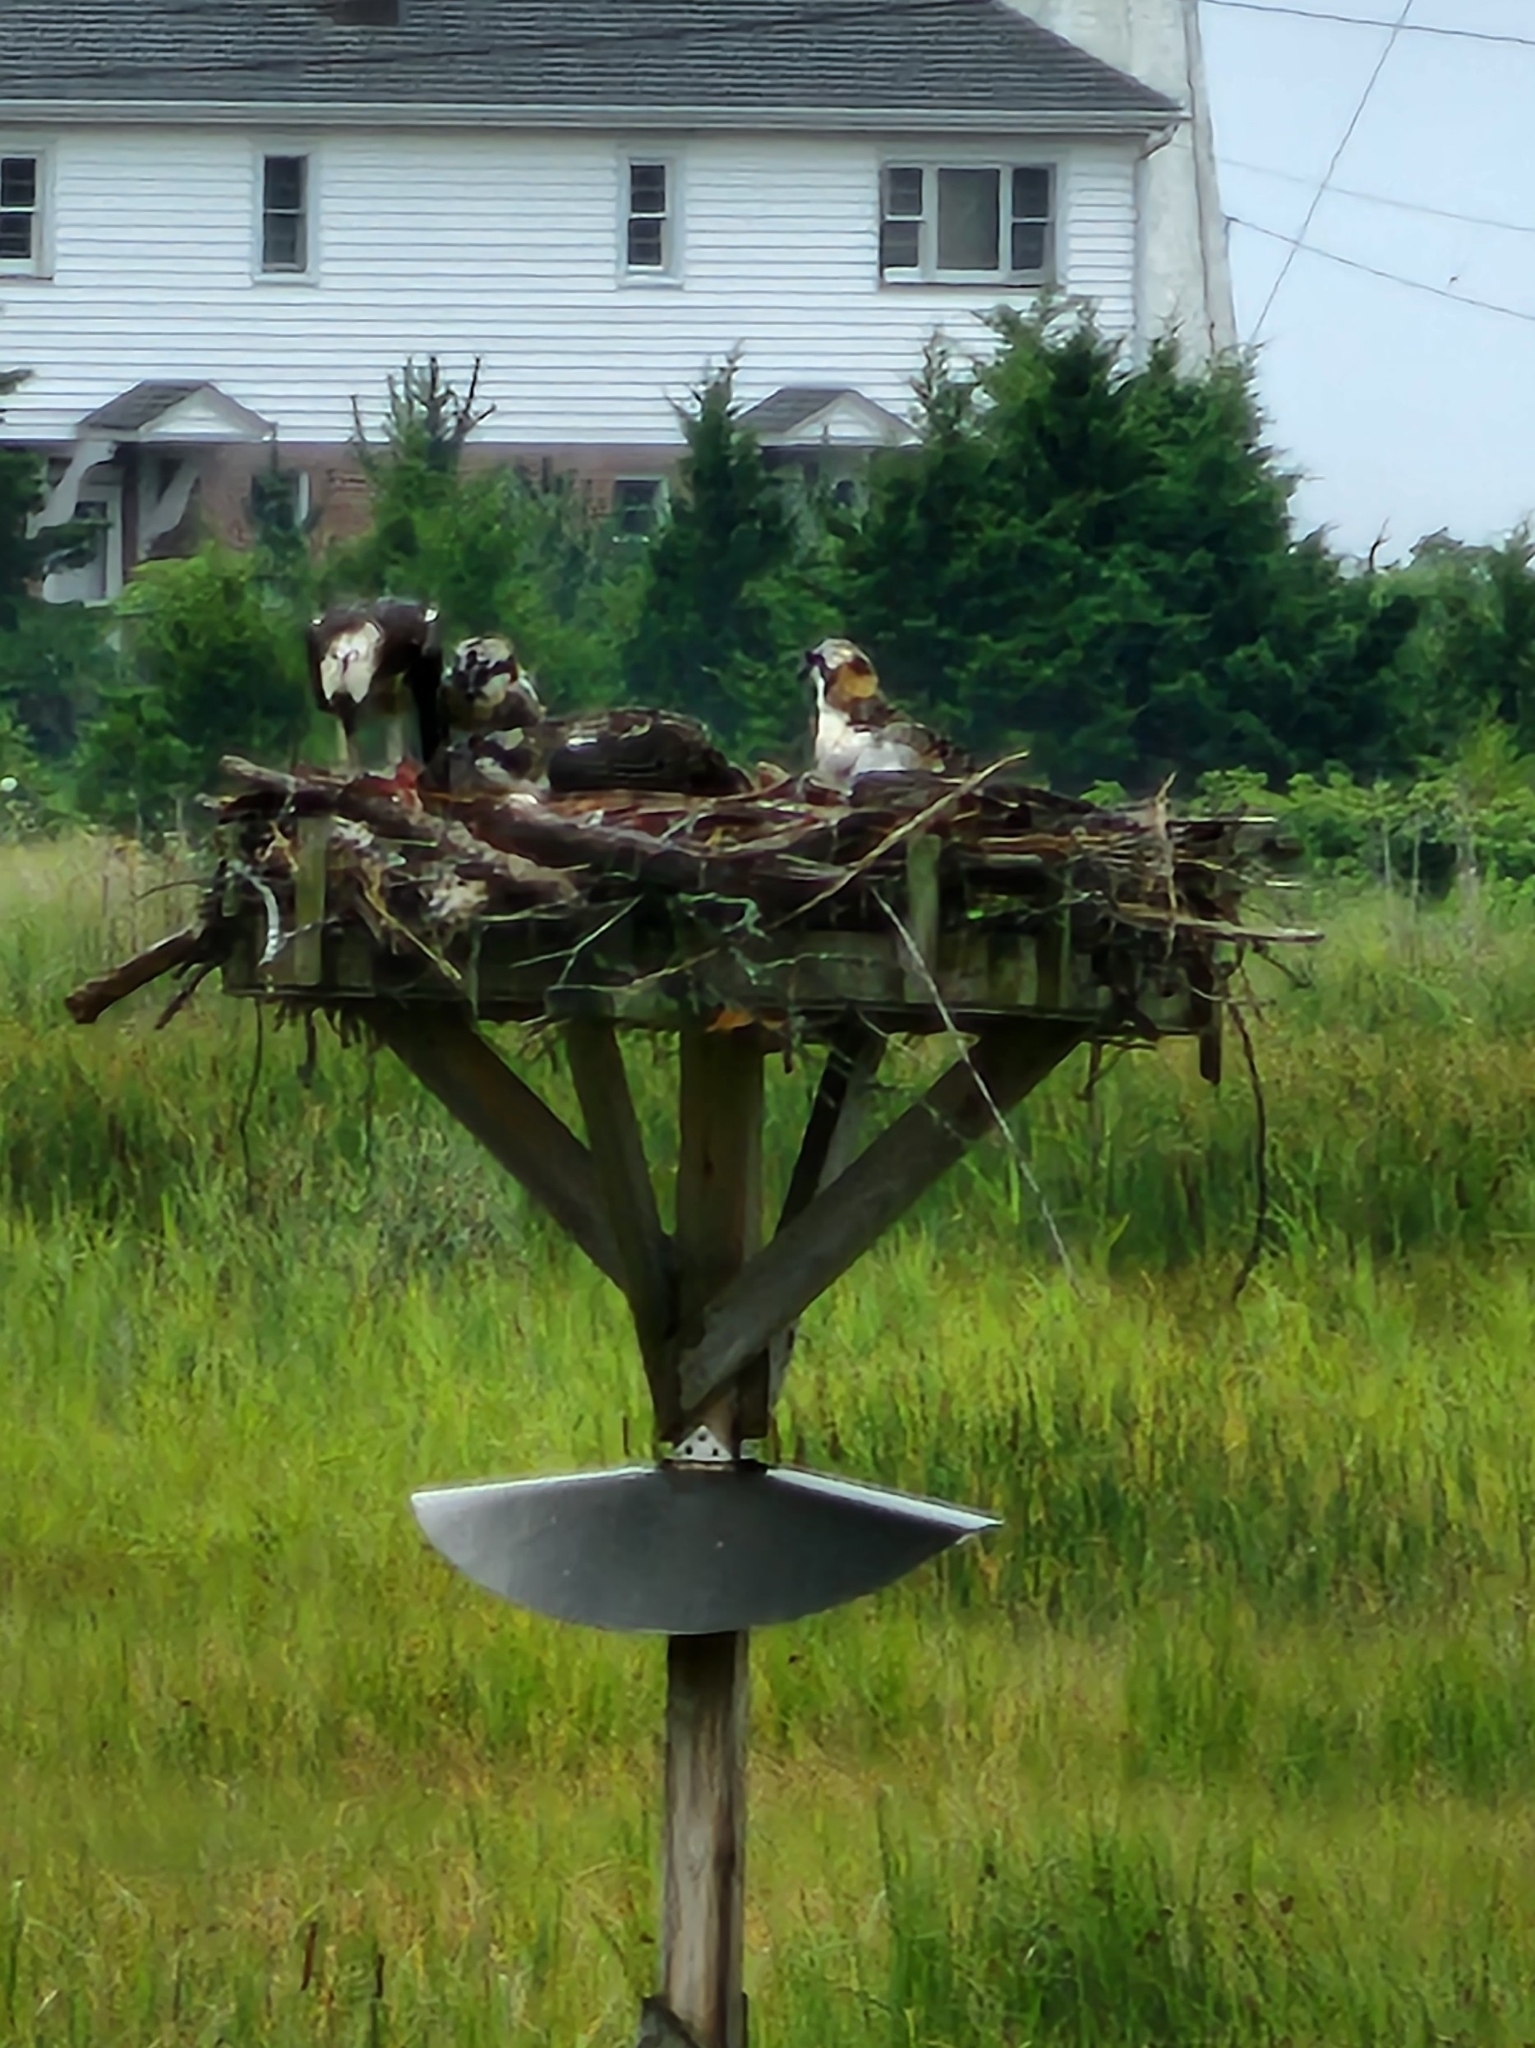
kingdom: Animalia
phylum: Chordata
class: Aves
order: Accipitriformes
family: Pandionidae
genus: Pandion
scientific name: Pandion haliaetus
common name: Osprey
